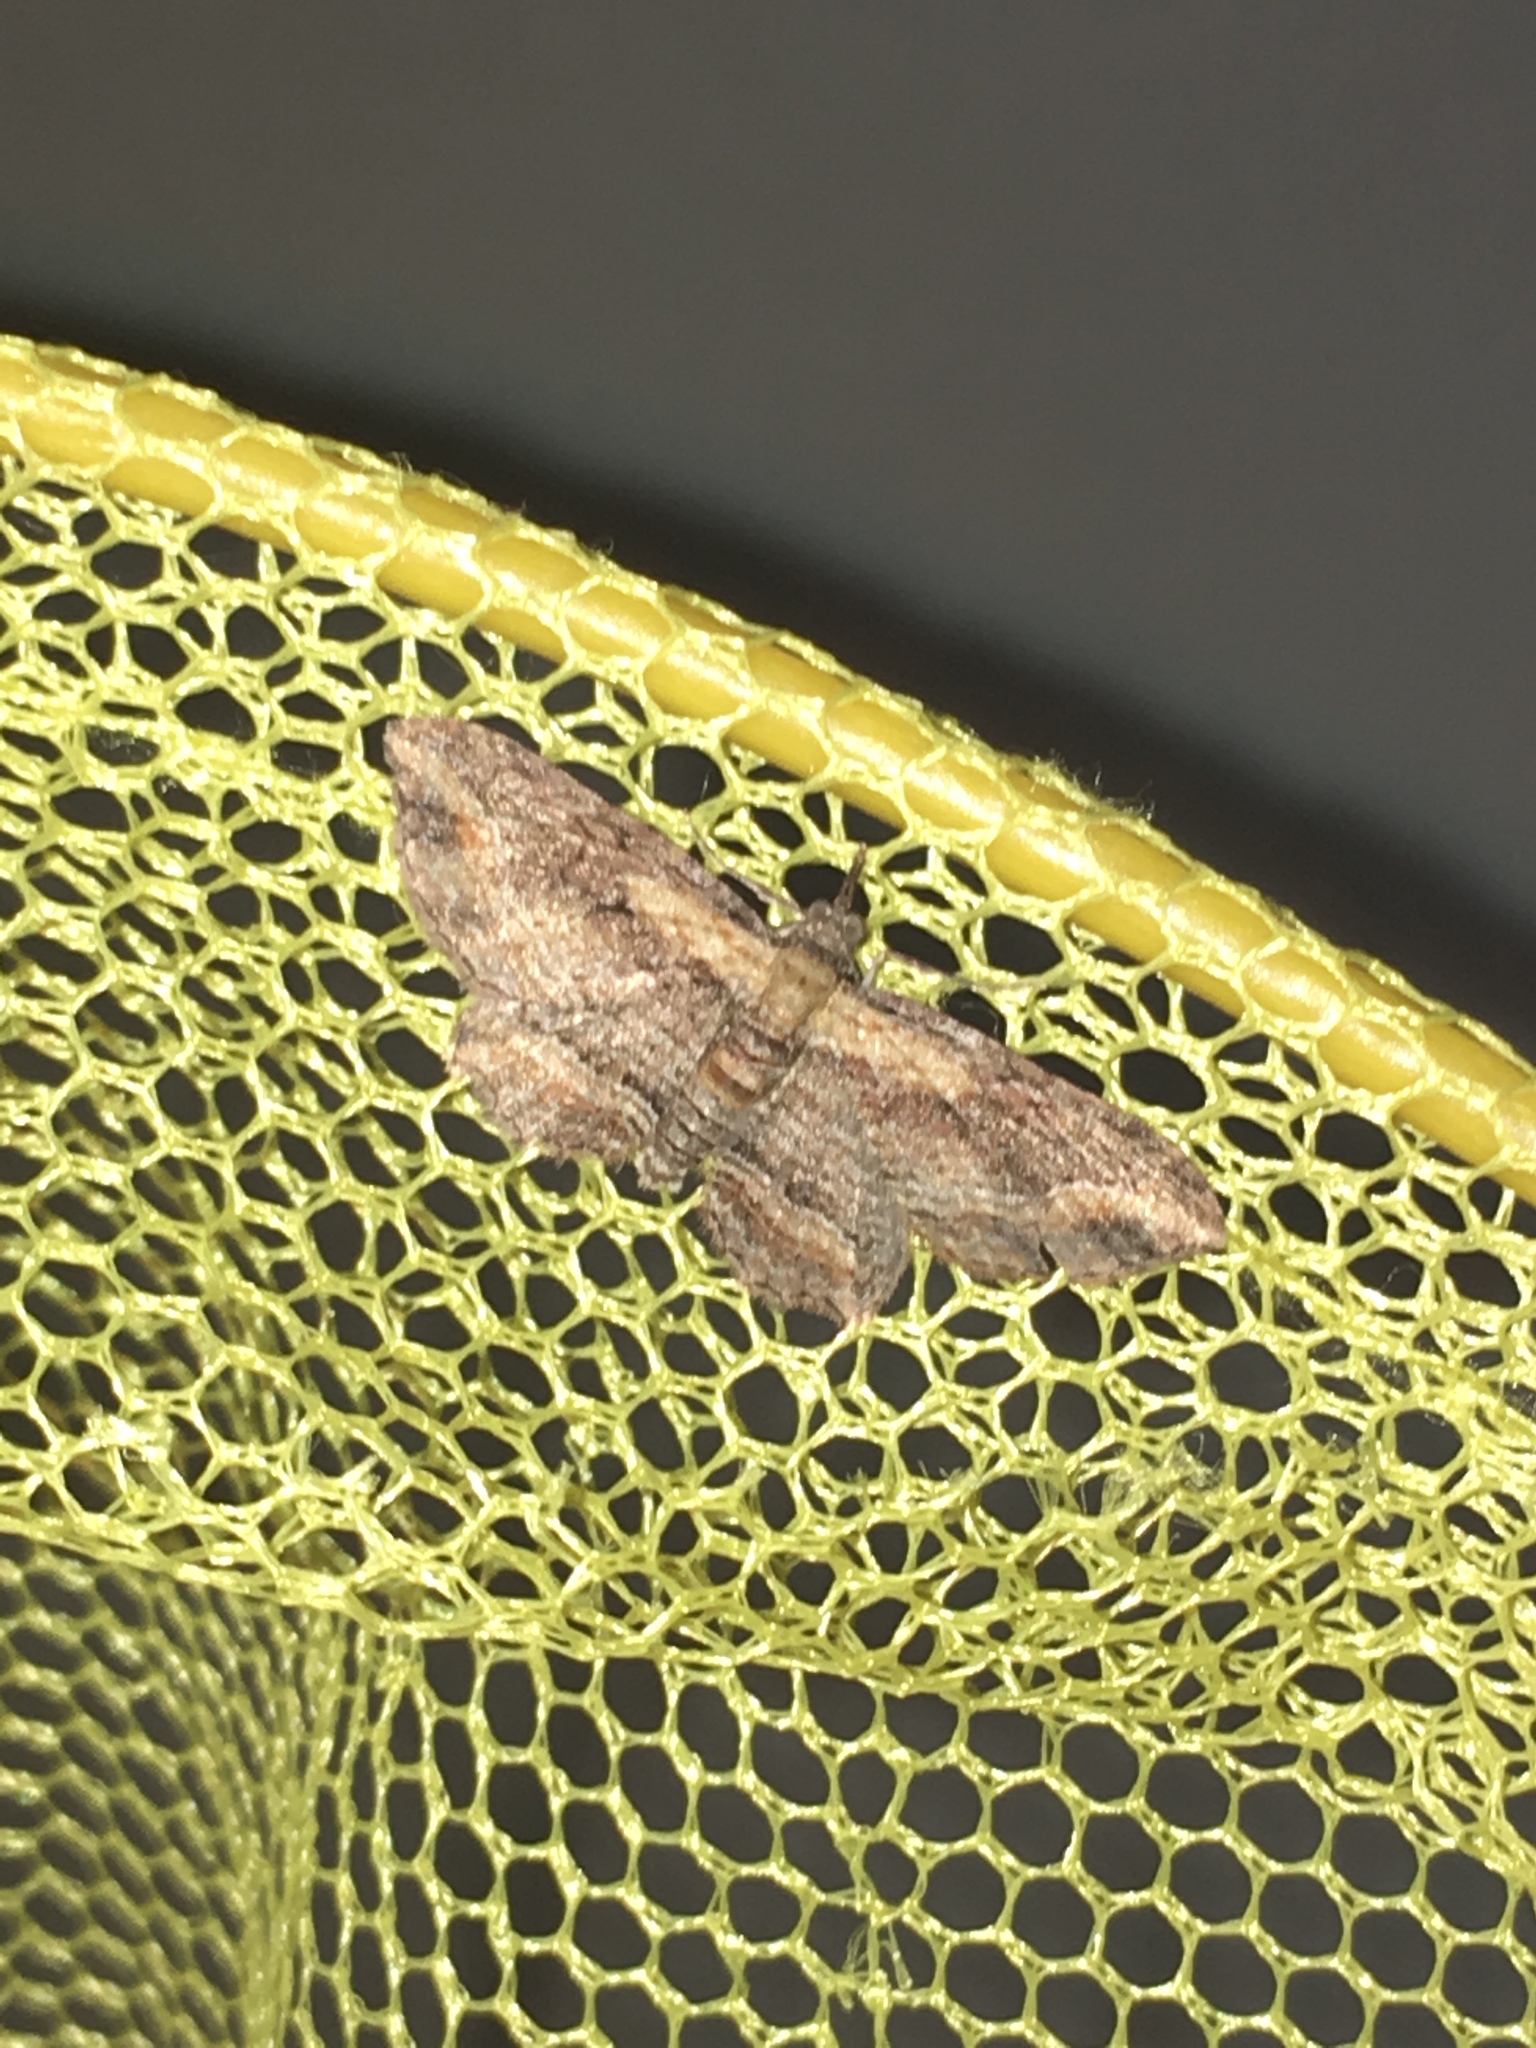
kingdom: Animalia
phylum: Arthropoda
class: Insecta
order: Lepidoptera
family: Geometridae
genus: Chloroclystis
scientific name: Chloroclystis filata
